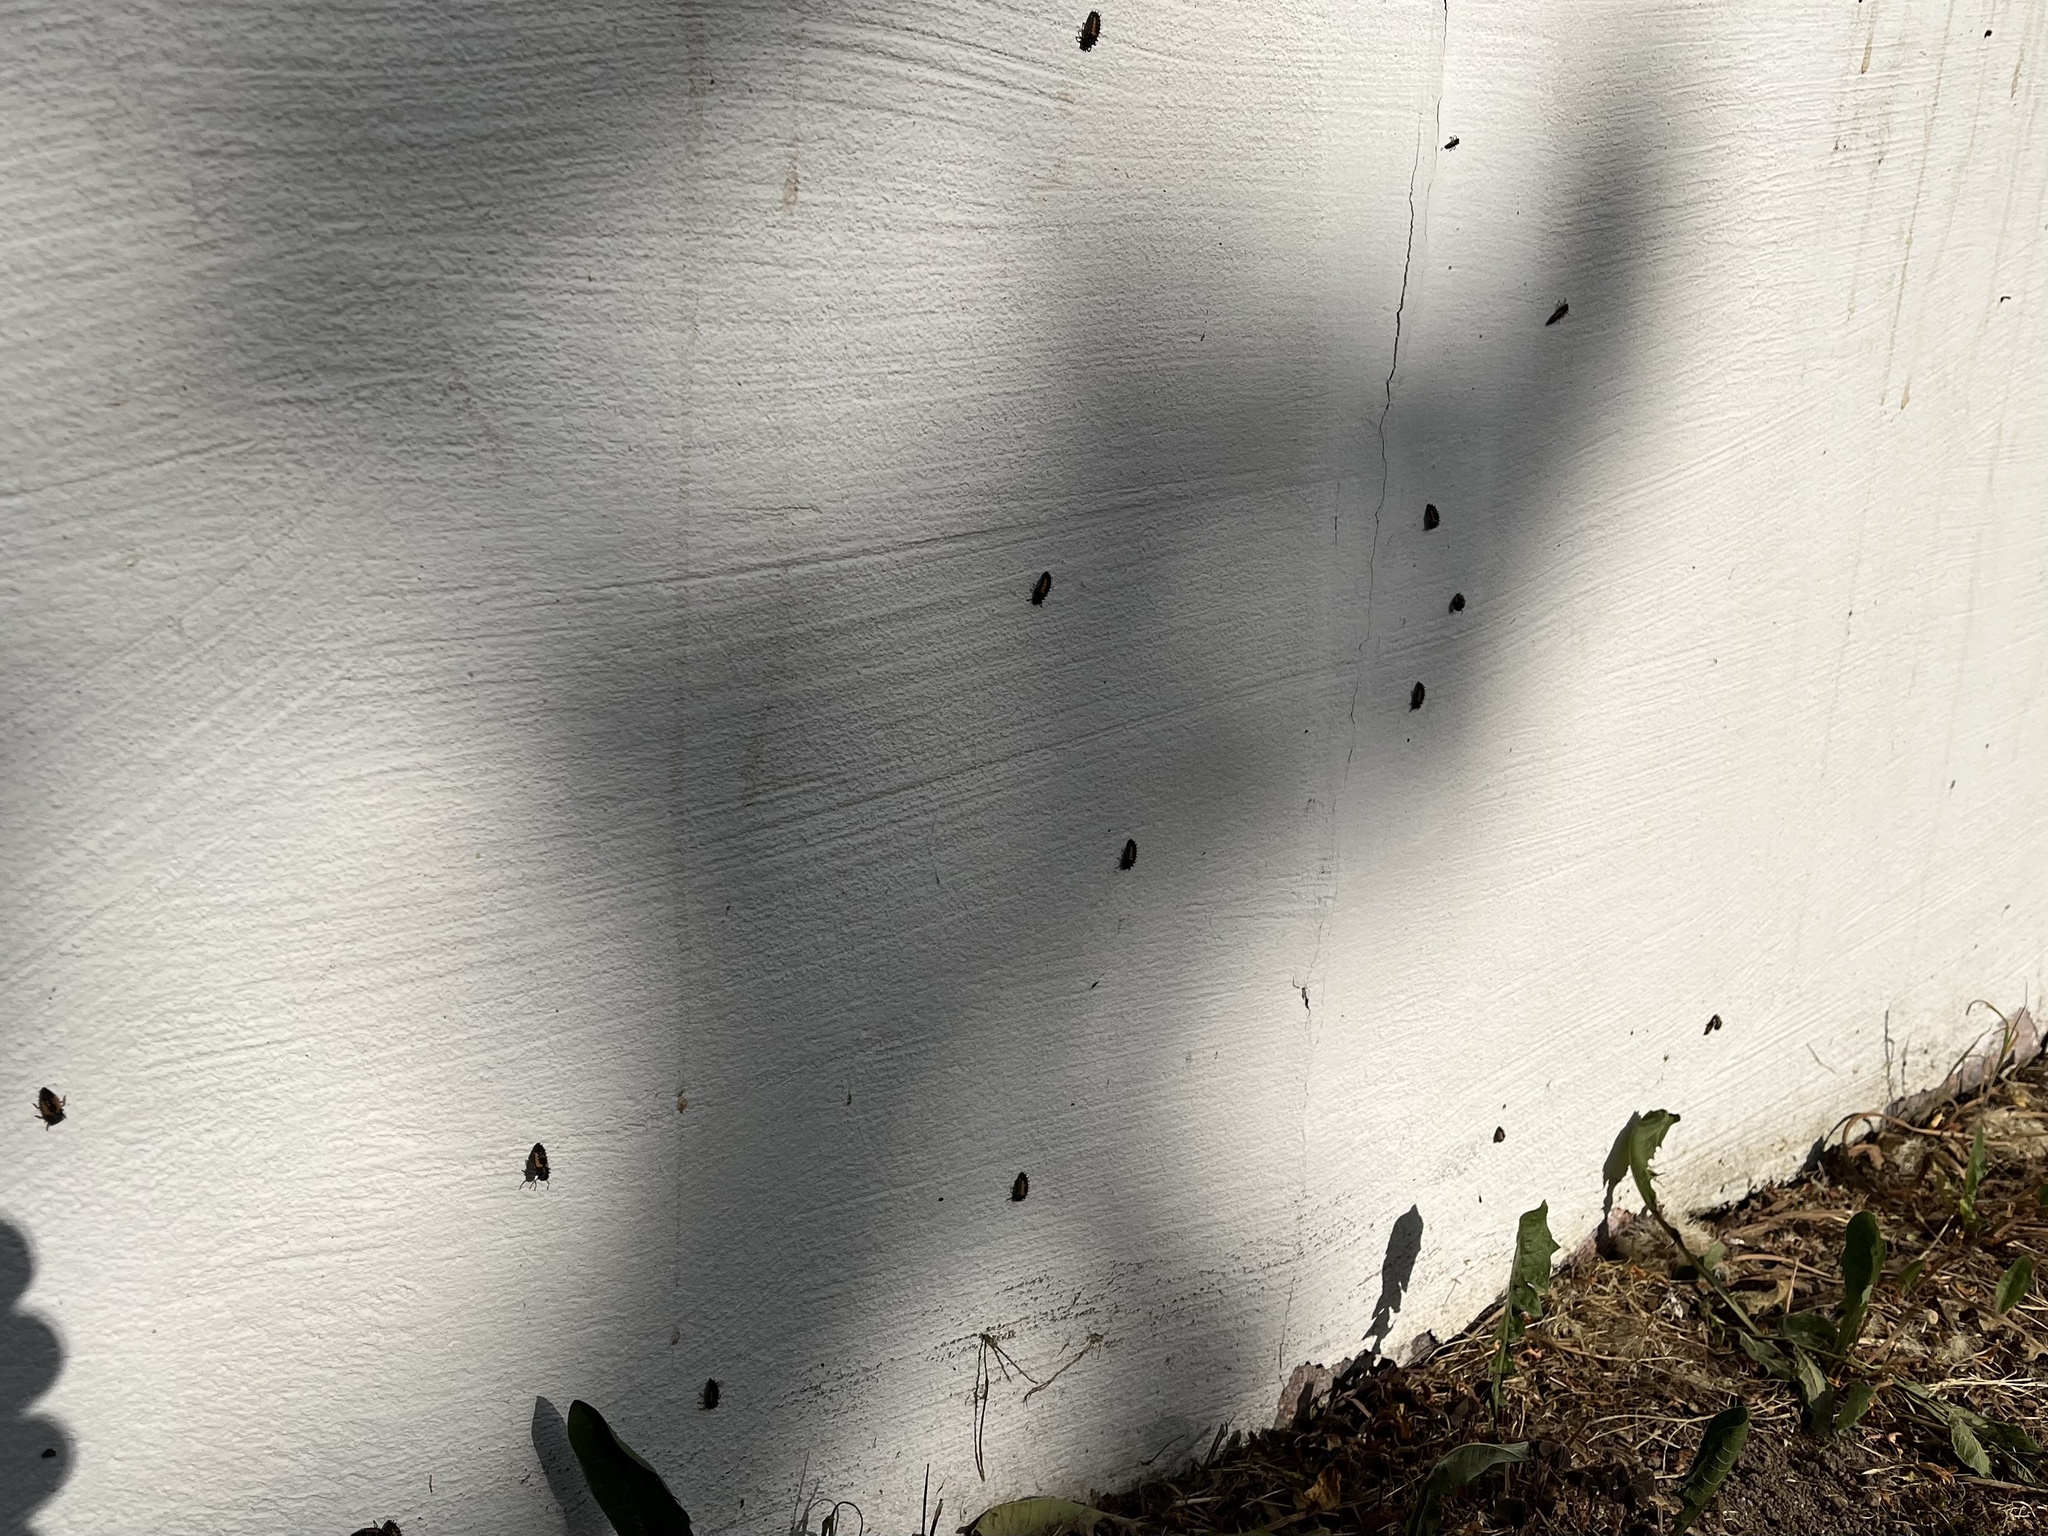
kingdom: Animalia
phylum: Arthropoda
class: Insecta
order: Coleoptera
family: Coccinellidae
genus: Harmonia
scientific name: Harmonia axyridis
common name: Harlequin ladybird
